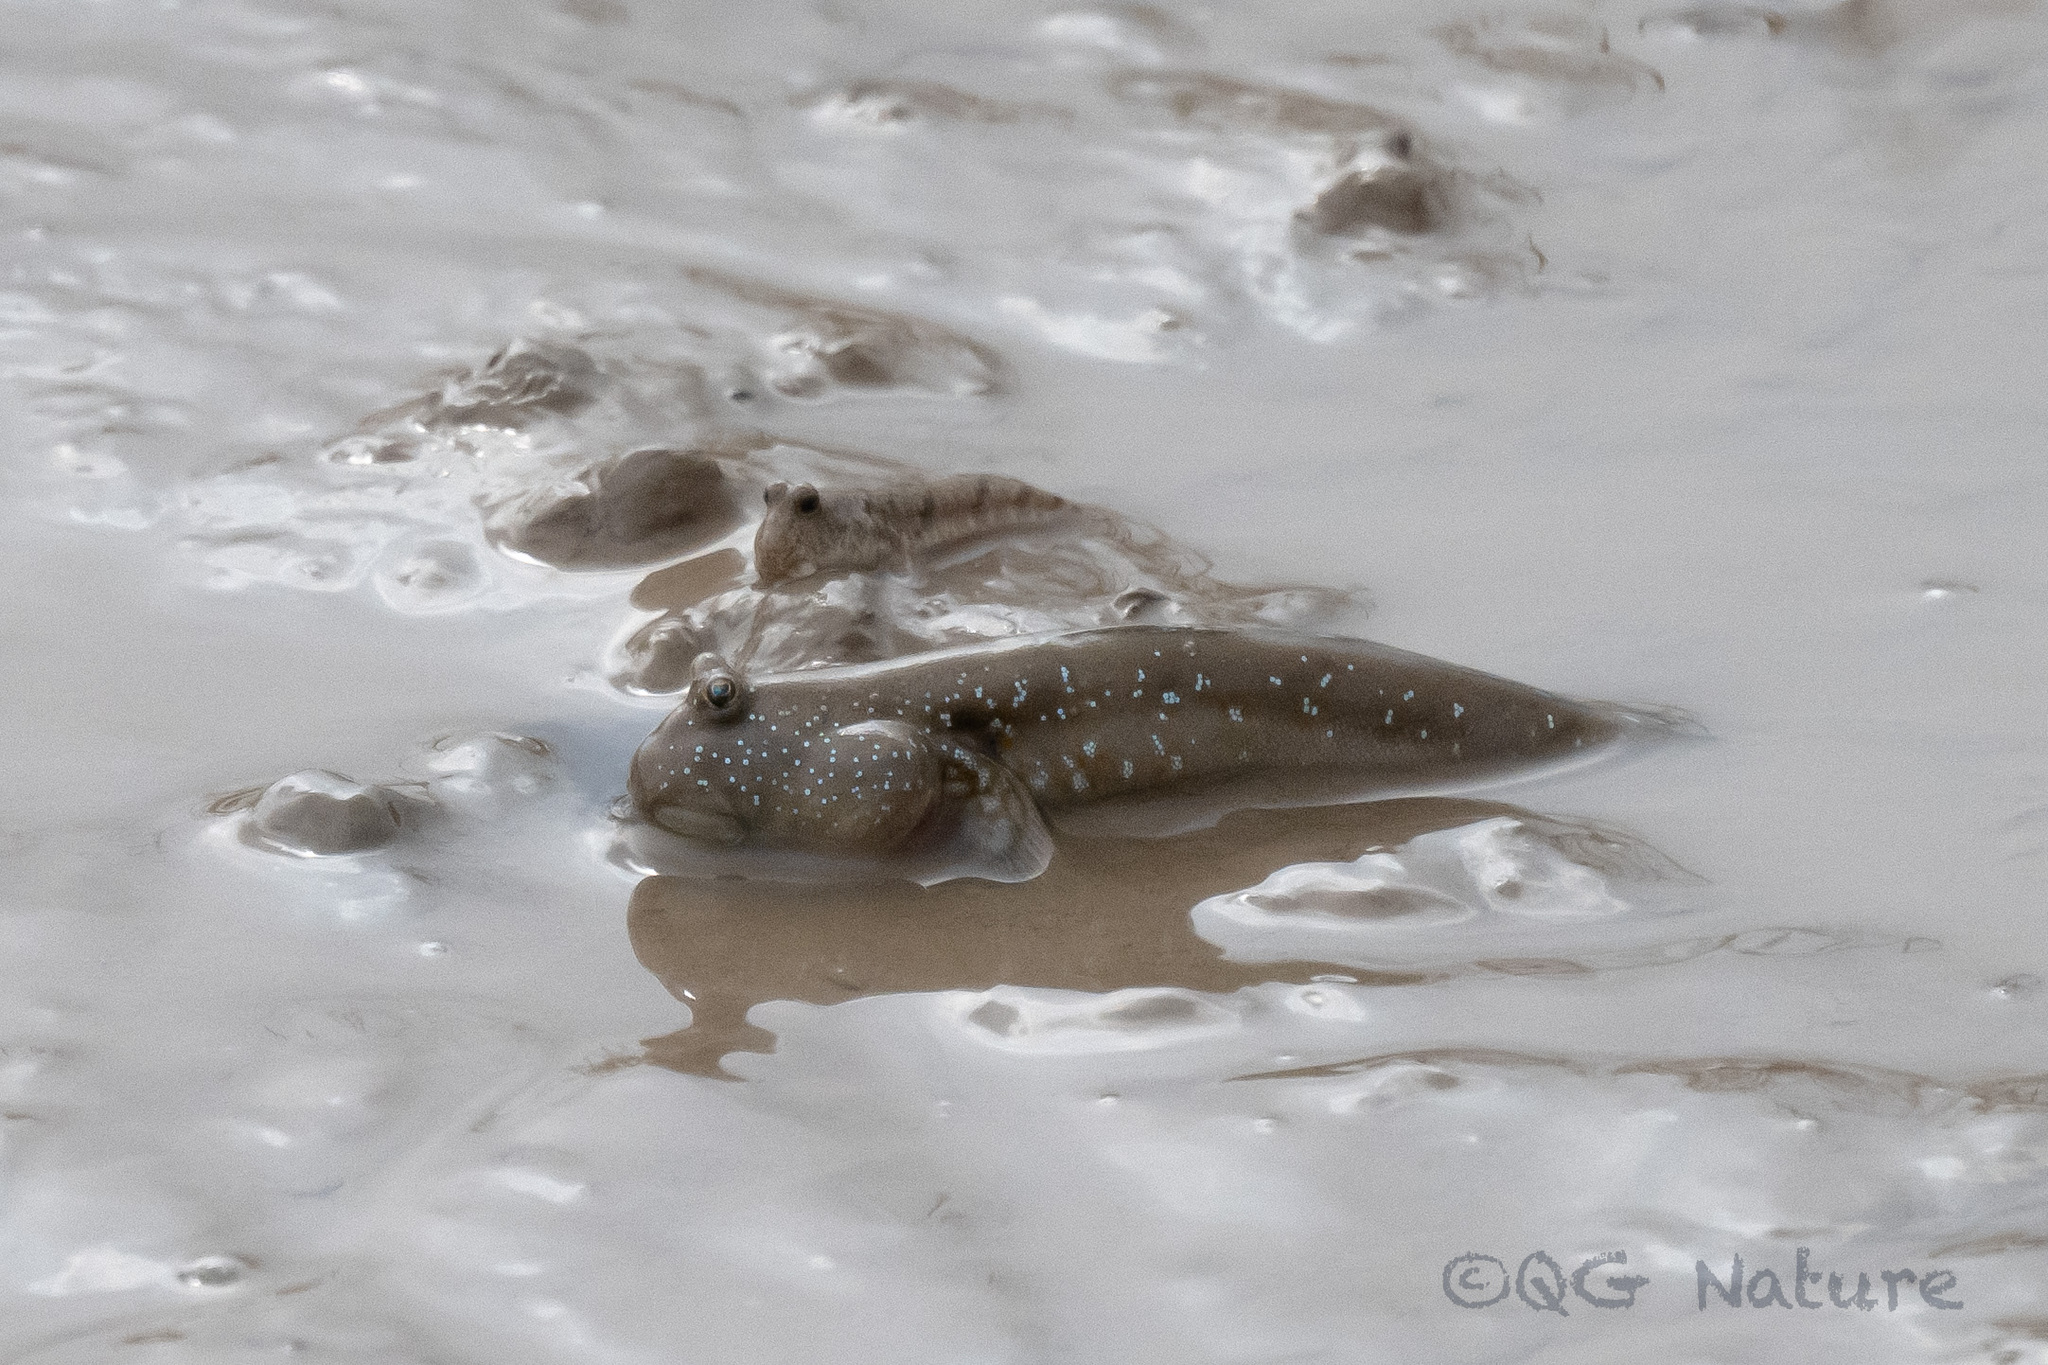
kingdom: Animalia
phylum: Chordata
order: Perciformes
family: Gobiidae
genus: Boleophthalmus
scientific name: Boleophthalmus pectinirostris
